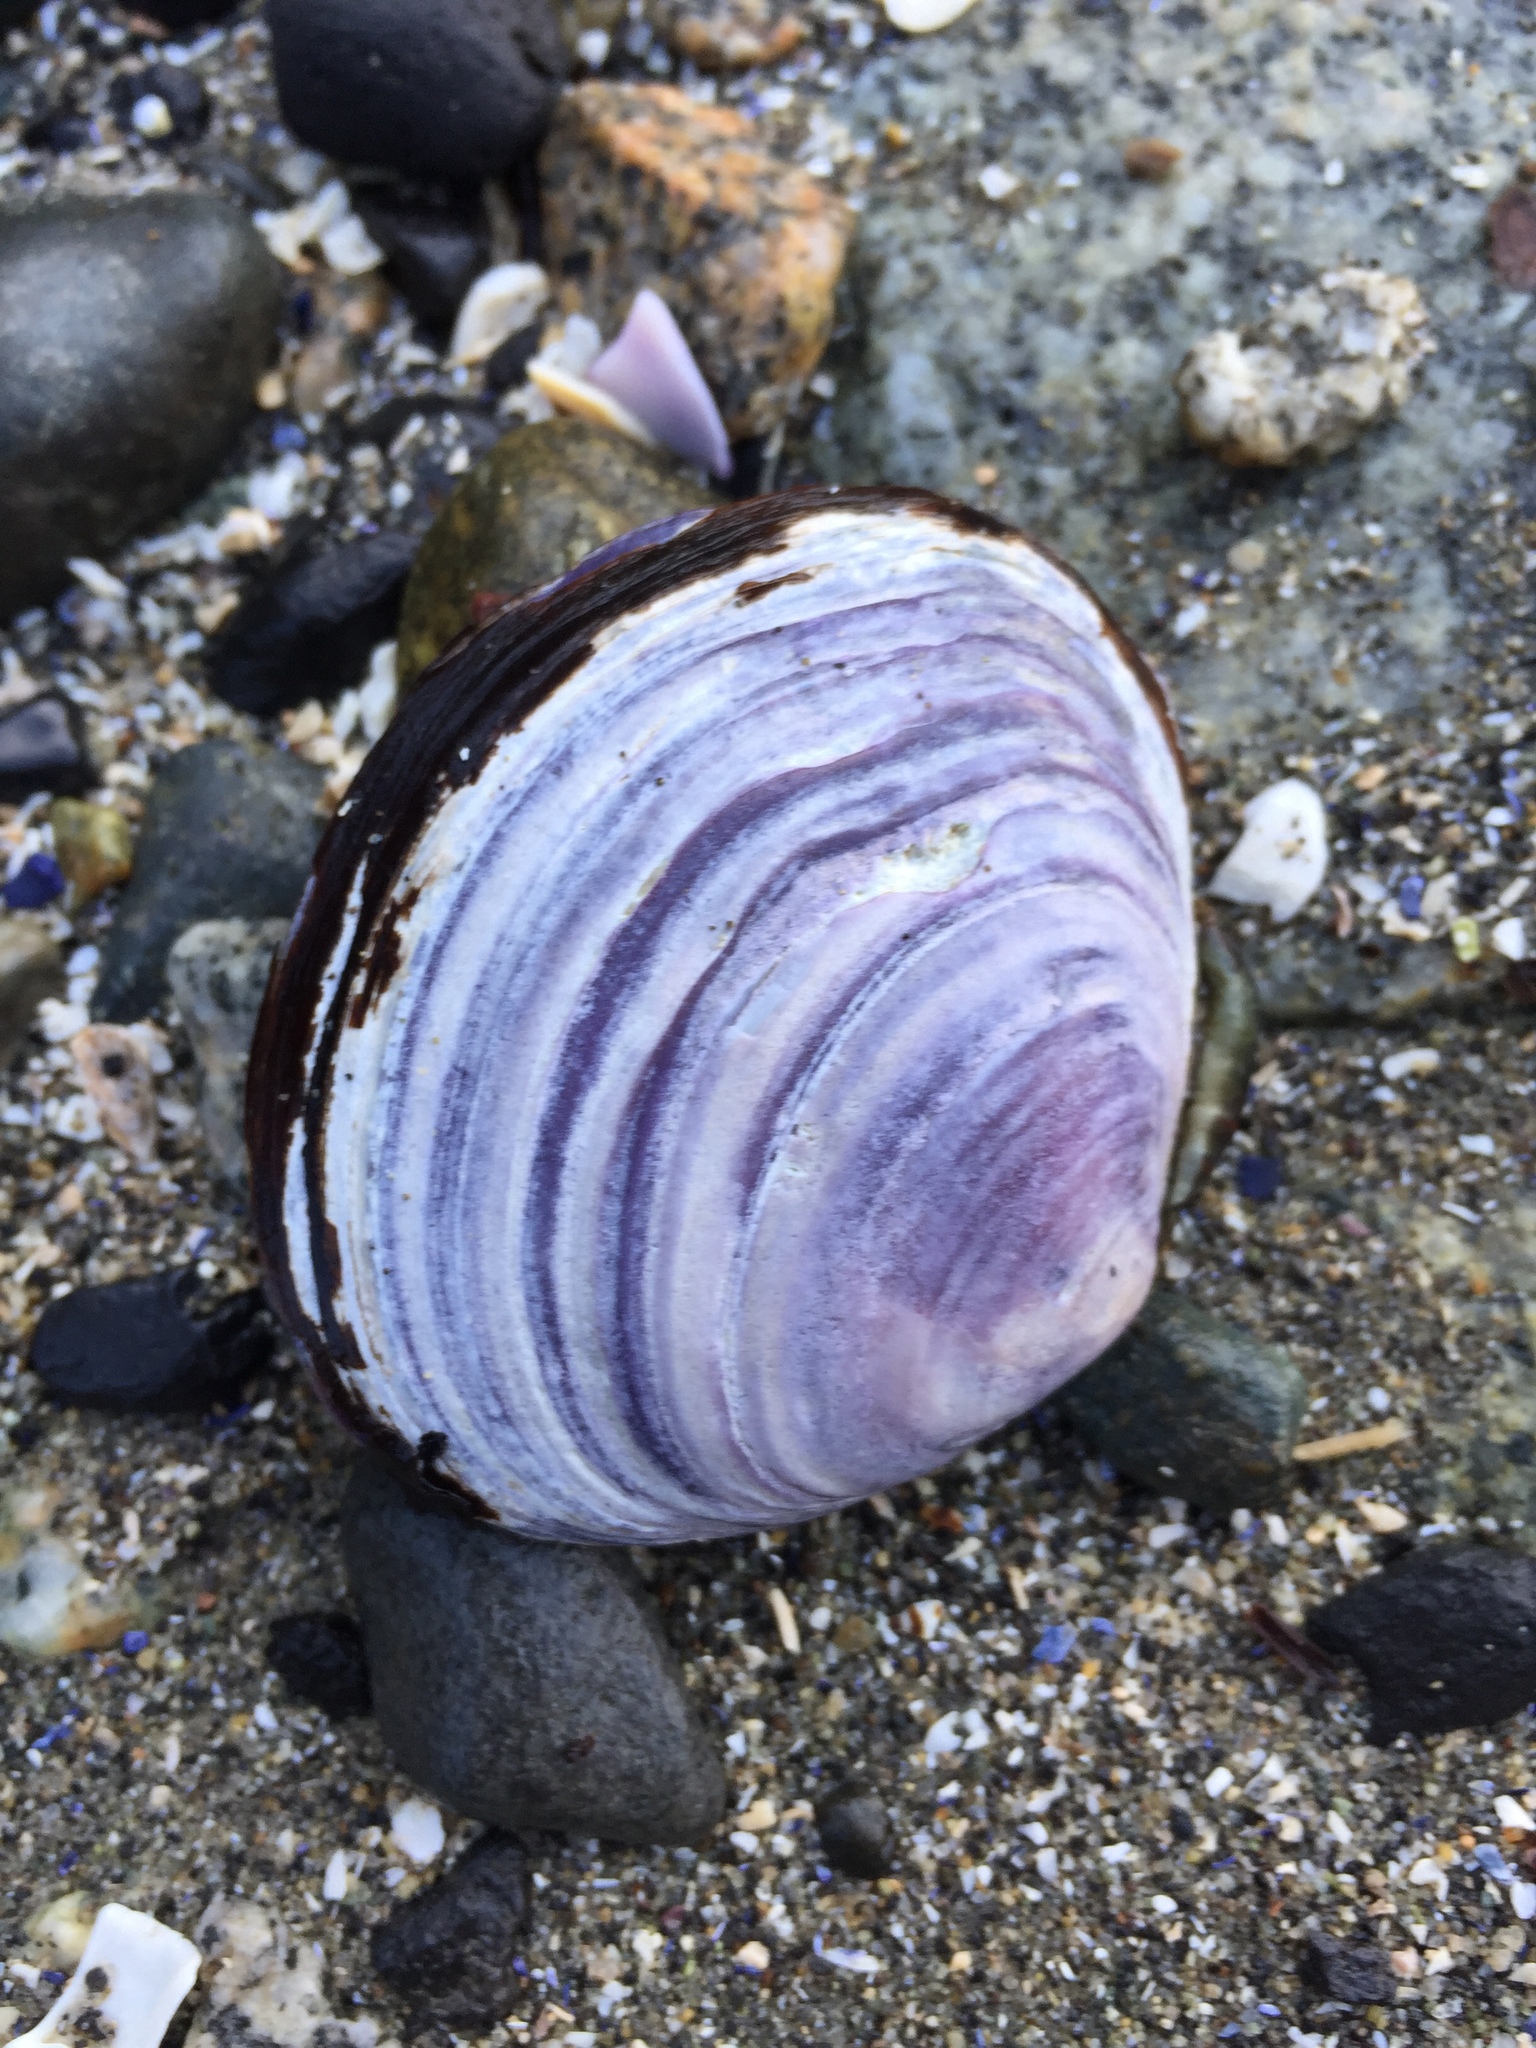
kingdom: Animalia
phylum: Mollusca
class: Bivalvia
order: Cardiida
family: Psammobiidae
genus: Nuttallia
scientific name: Nuttallia obscurata
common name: Purple mahogany-clam
